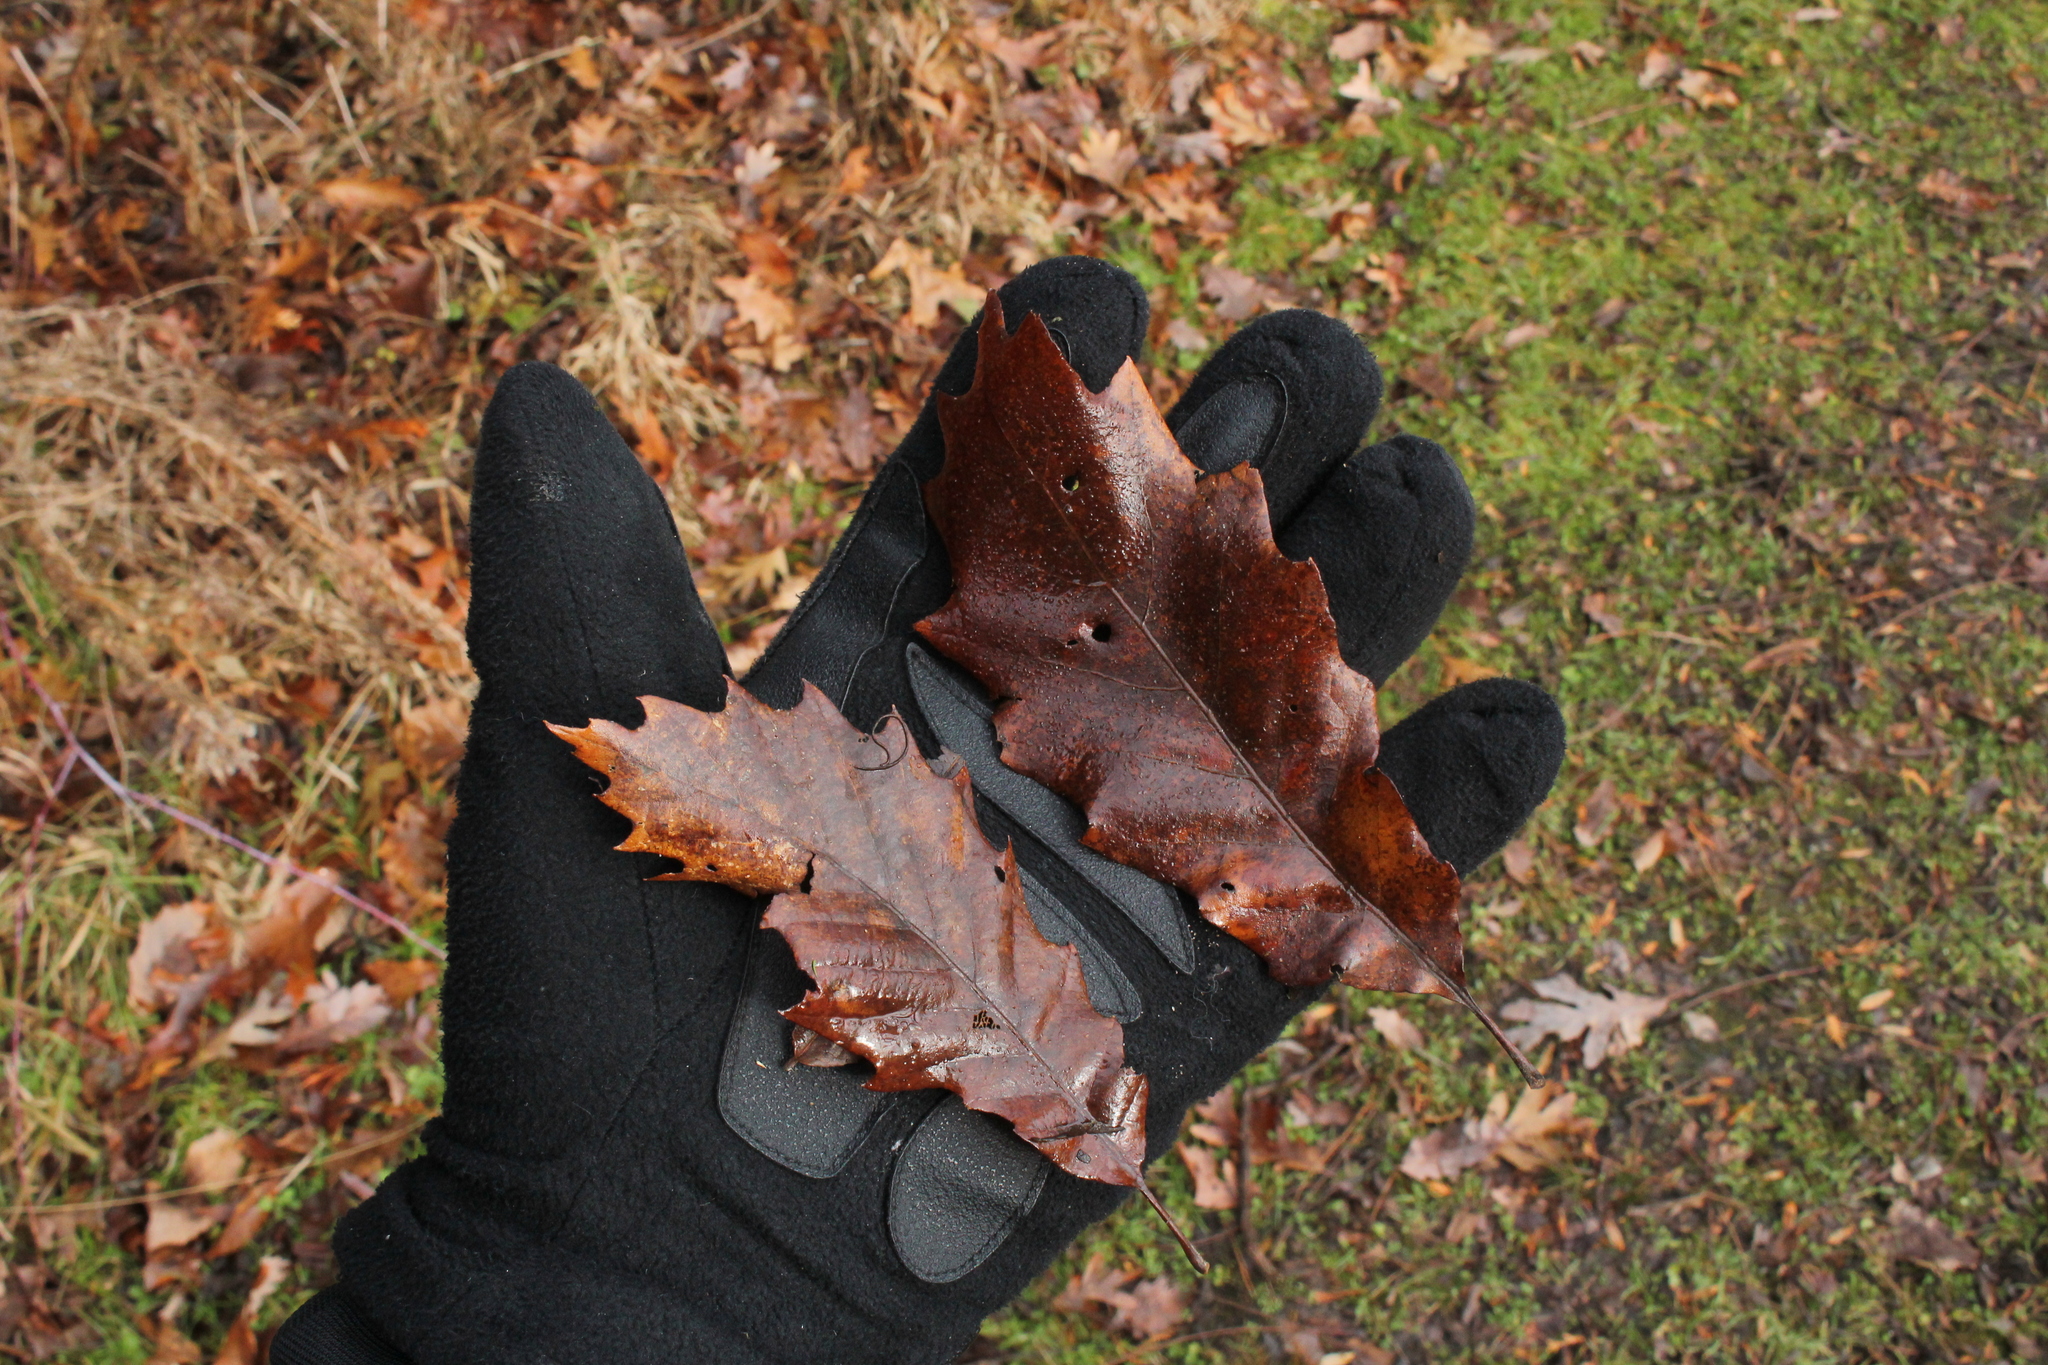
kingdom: Plantae
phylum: Tracheophyta
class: Magnoliopsida
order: Fagales
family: Fagaceae
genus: Quercus
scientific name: Quercus muehlenbergii
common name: Chinkapin oak
